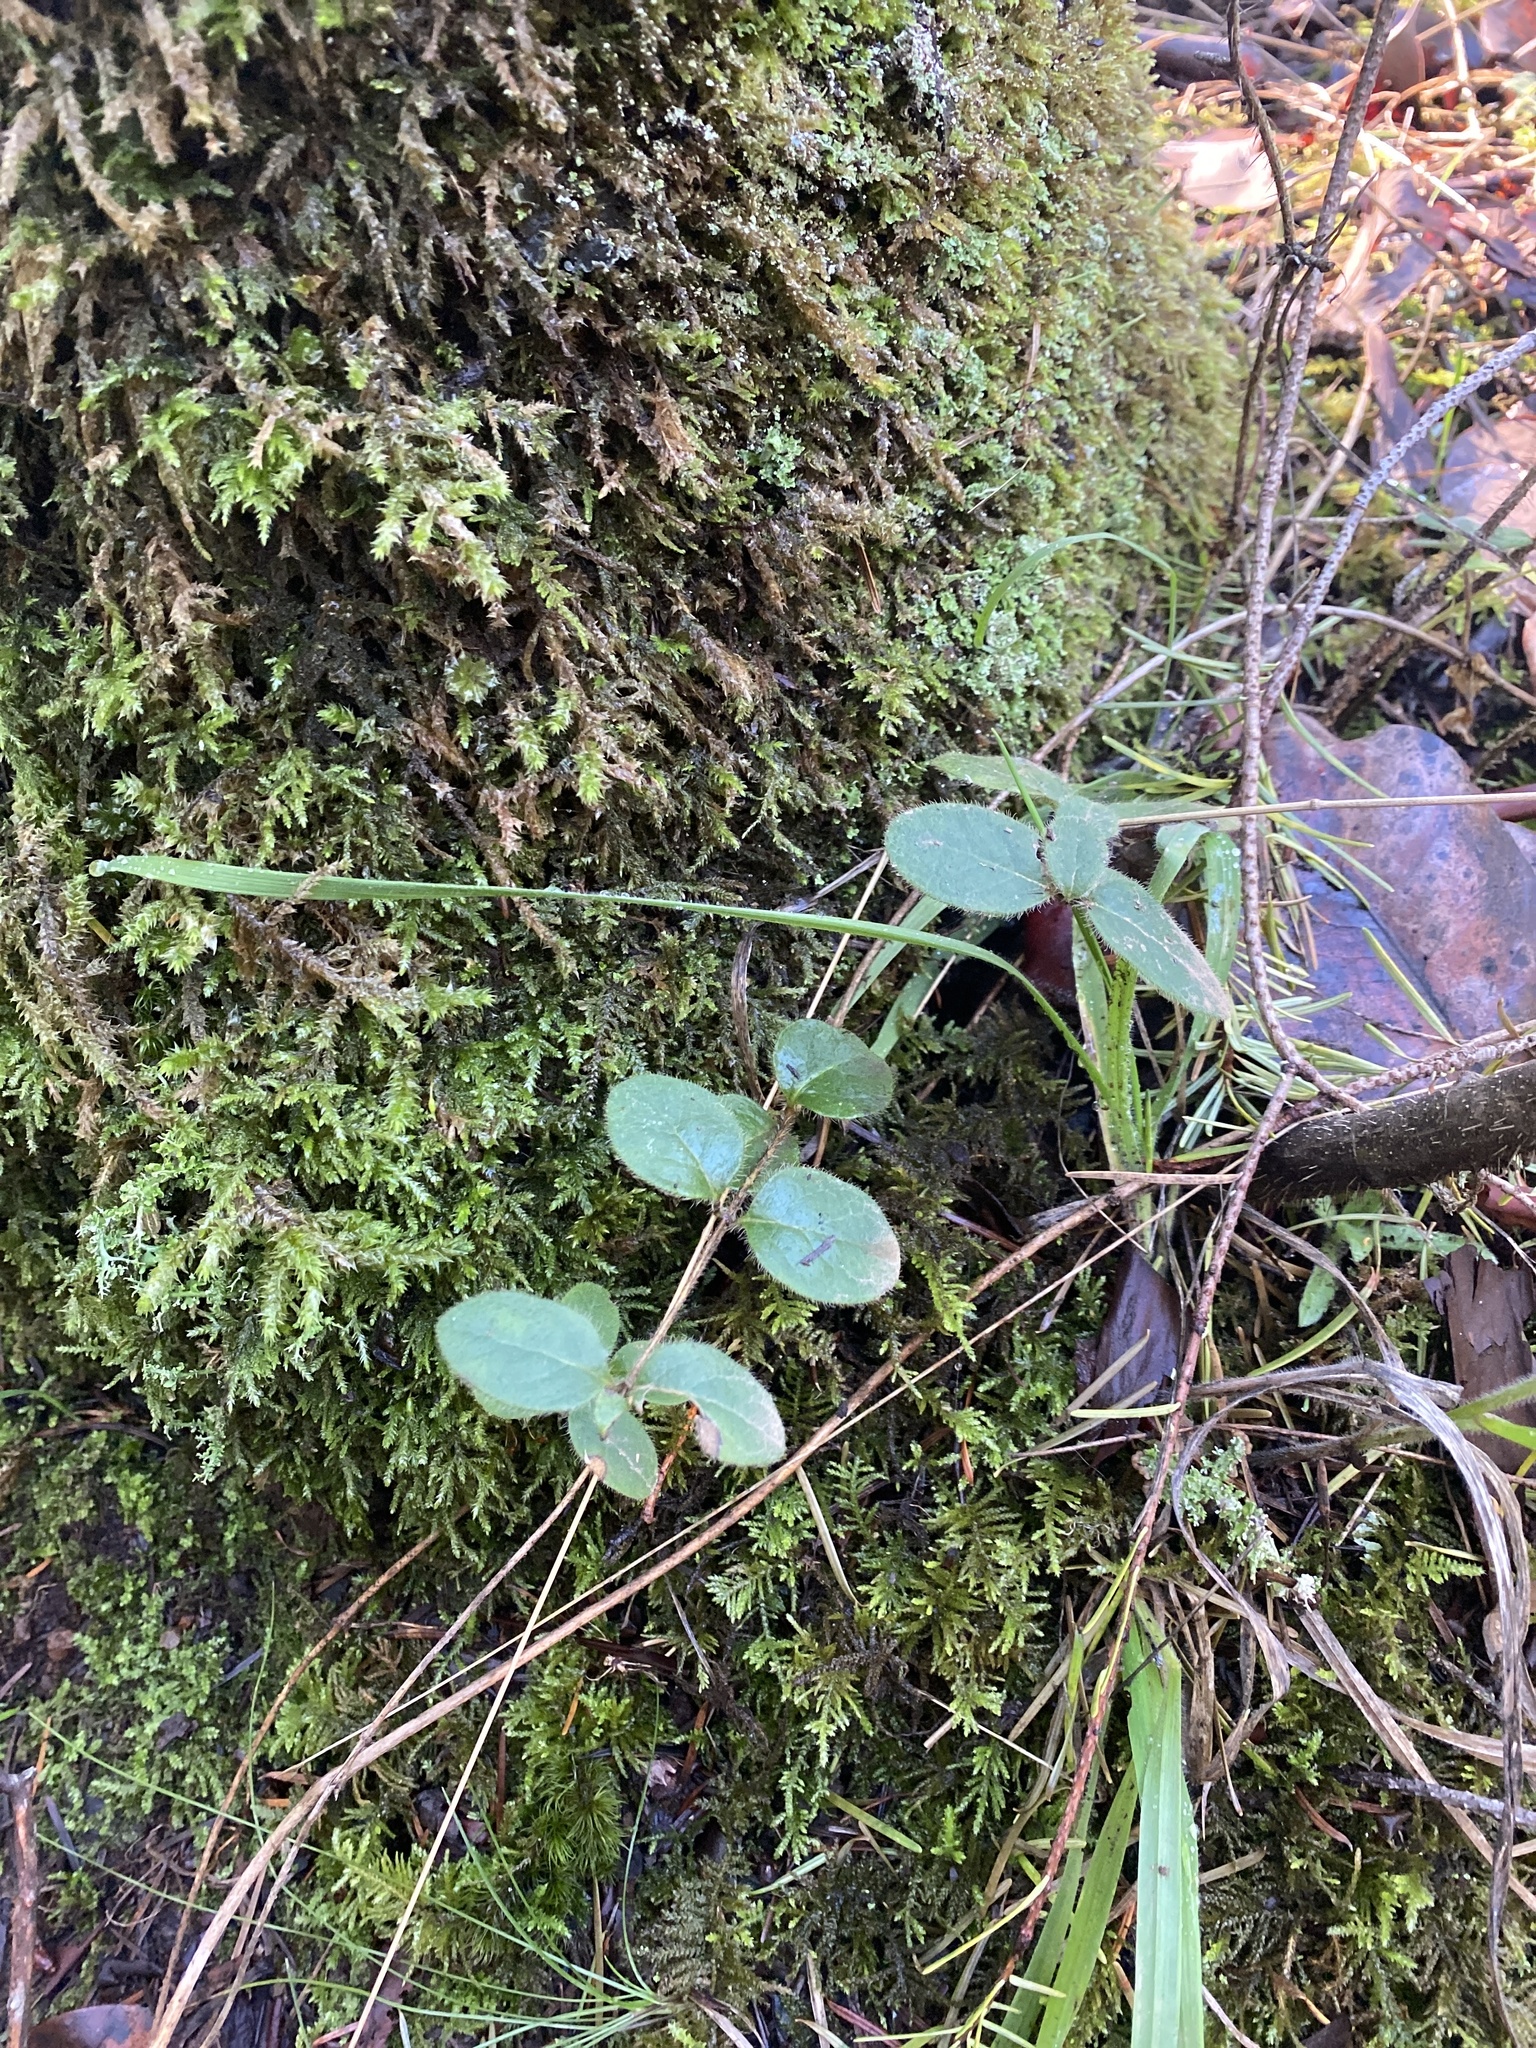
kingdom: Plantae
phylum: Tracheophyta
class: Magnoliopsida
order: Dipsacales
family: Caprifoliaceae
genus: Lonicera
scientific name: Lonicera hispidula
